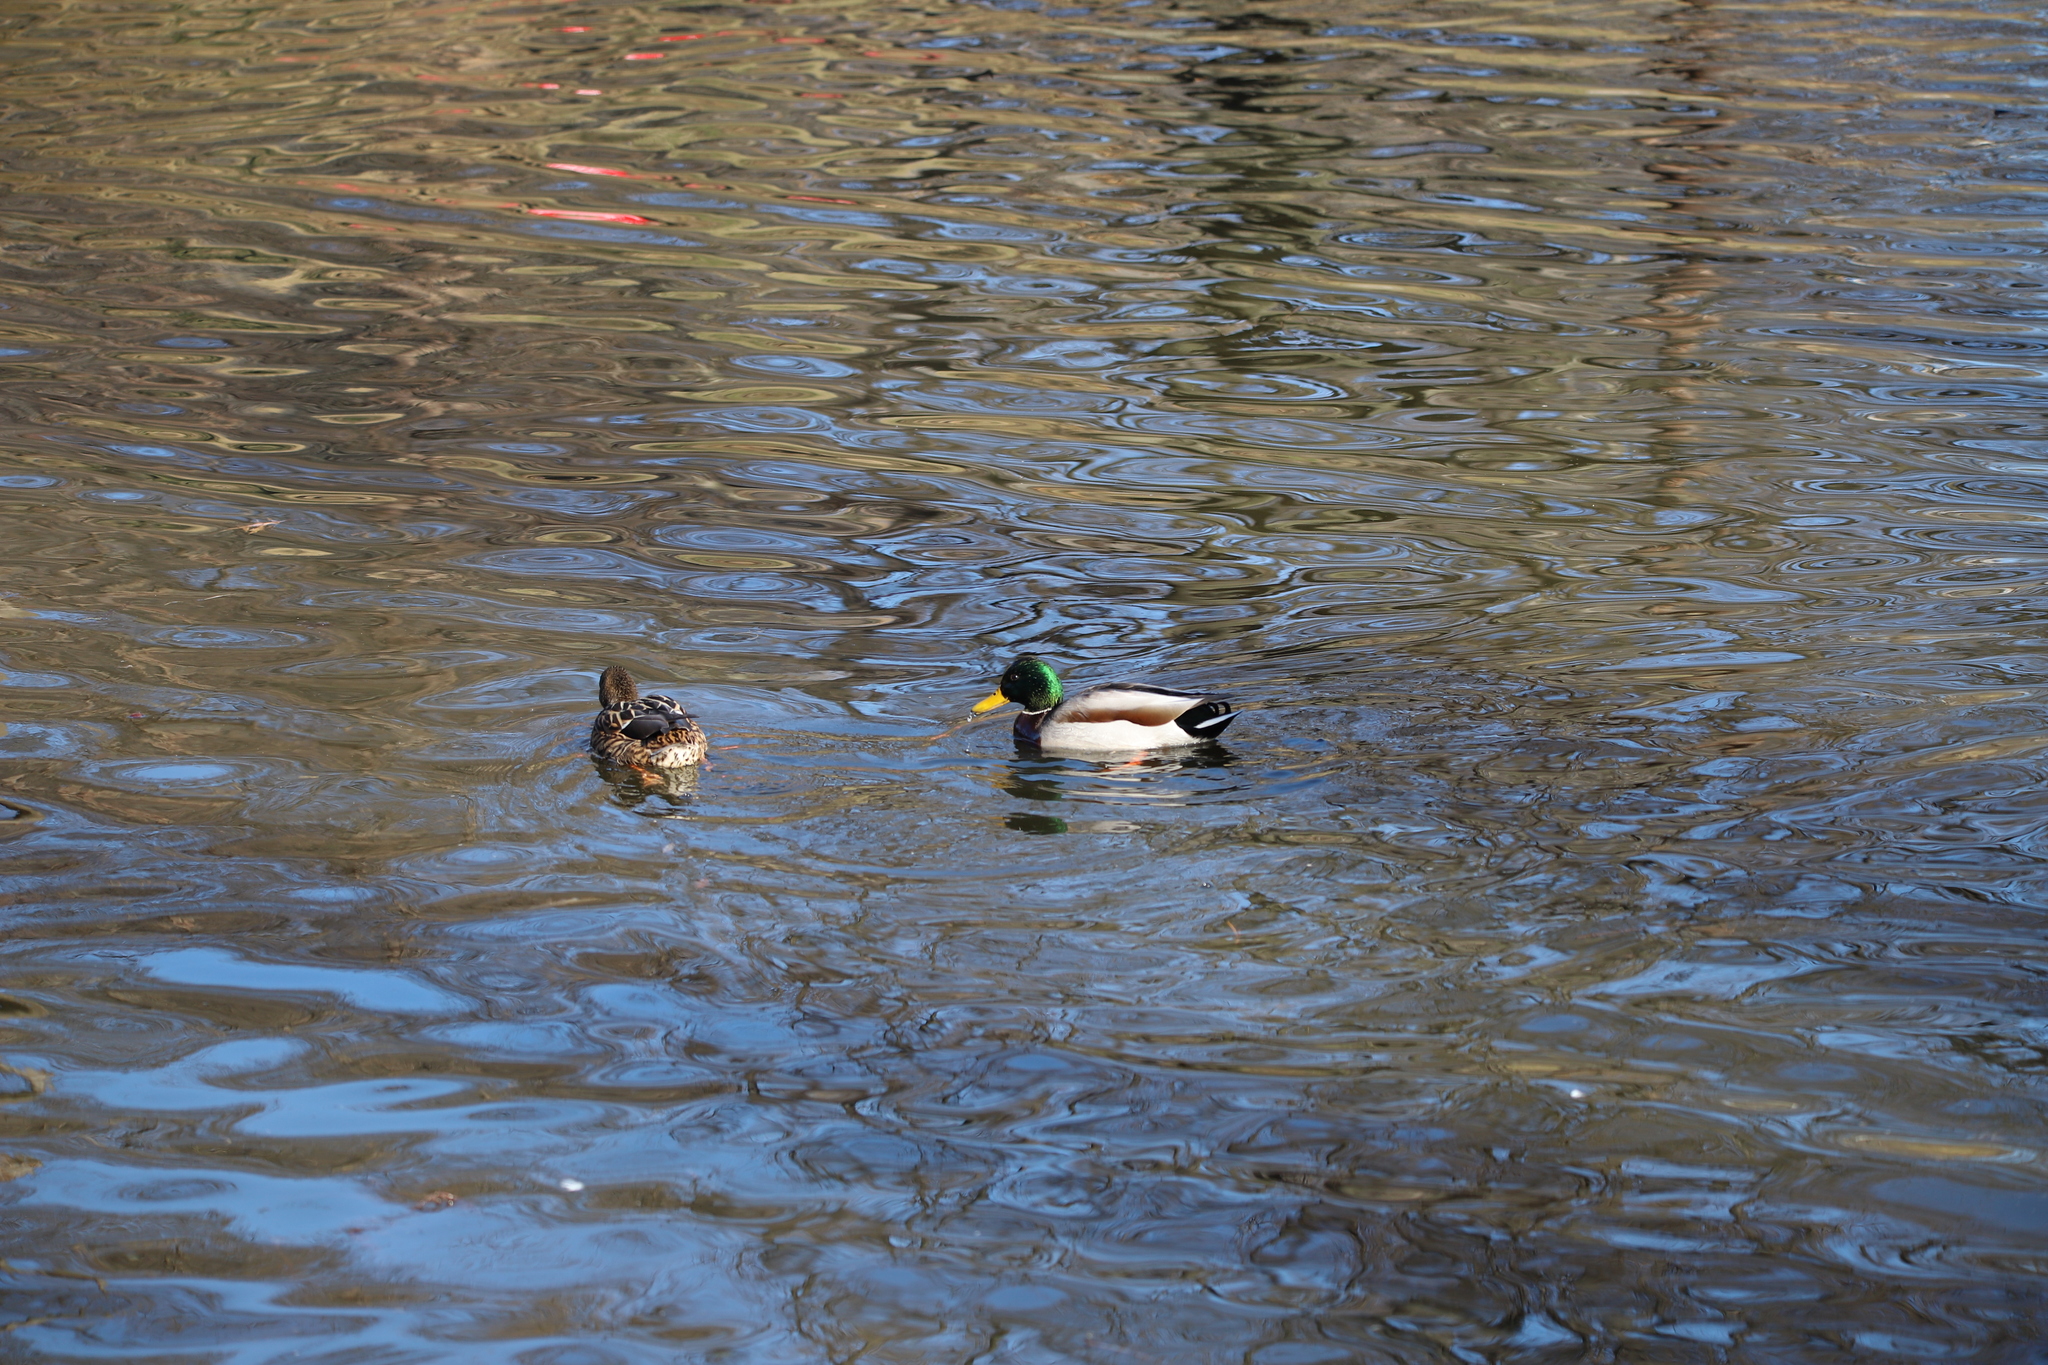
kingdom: Animalia
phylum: Chordata
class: Aves
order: Anseriformes
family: Anatidae
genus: Anas
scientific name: Anas platyrhynchos
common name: Mallard
